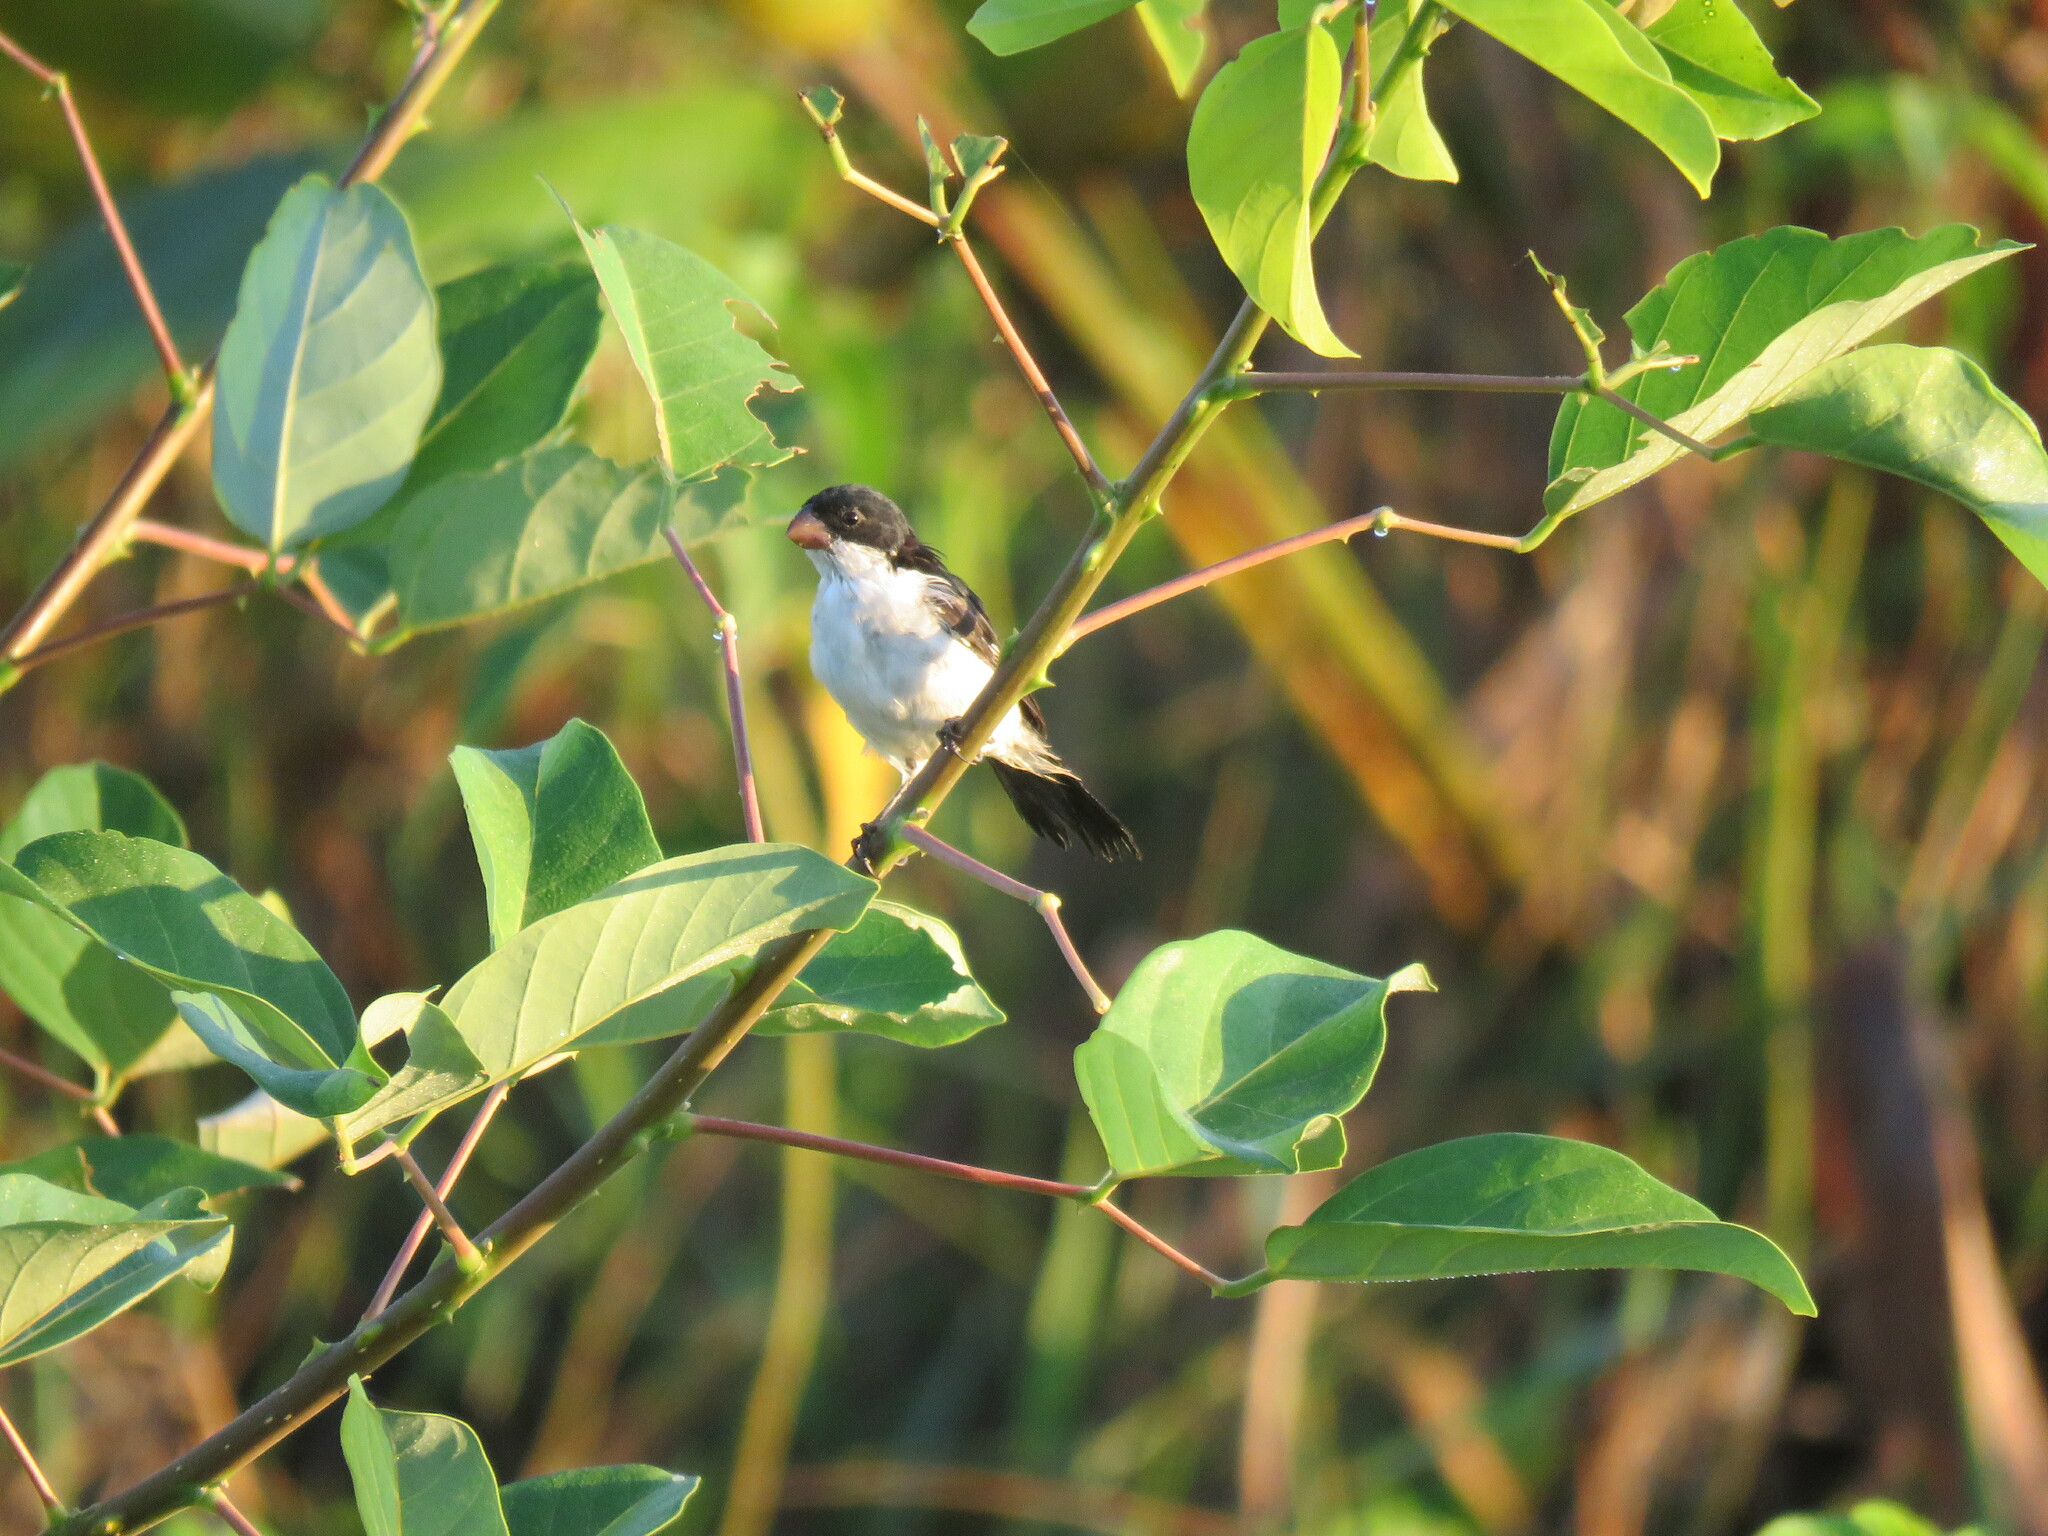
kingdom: Animalia
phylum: Chordata
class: Aves
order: Passeriformes
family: Thraupidae
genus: Sporophila
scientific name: Sporophila leucoptera
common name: White-bellied seedeater
